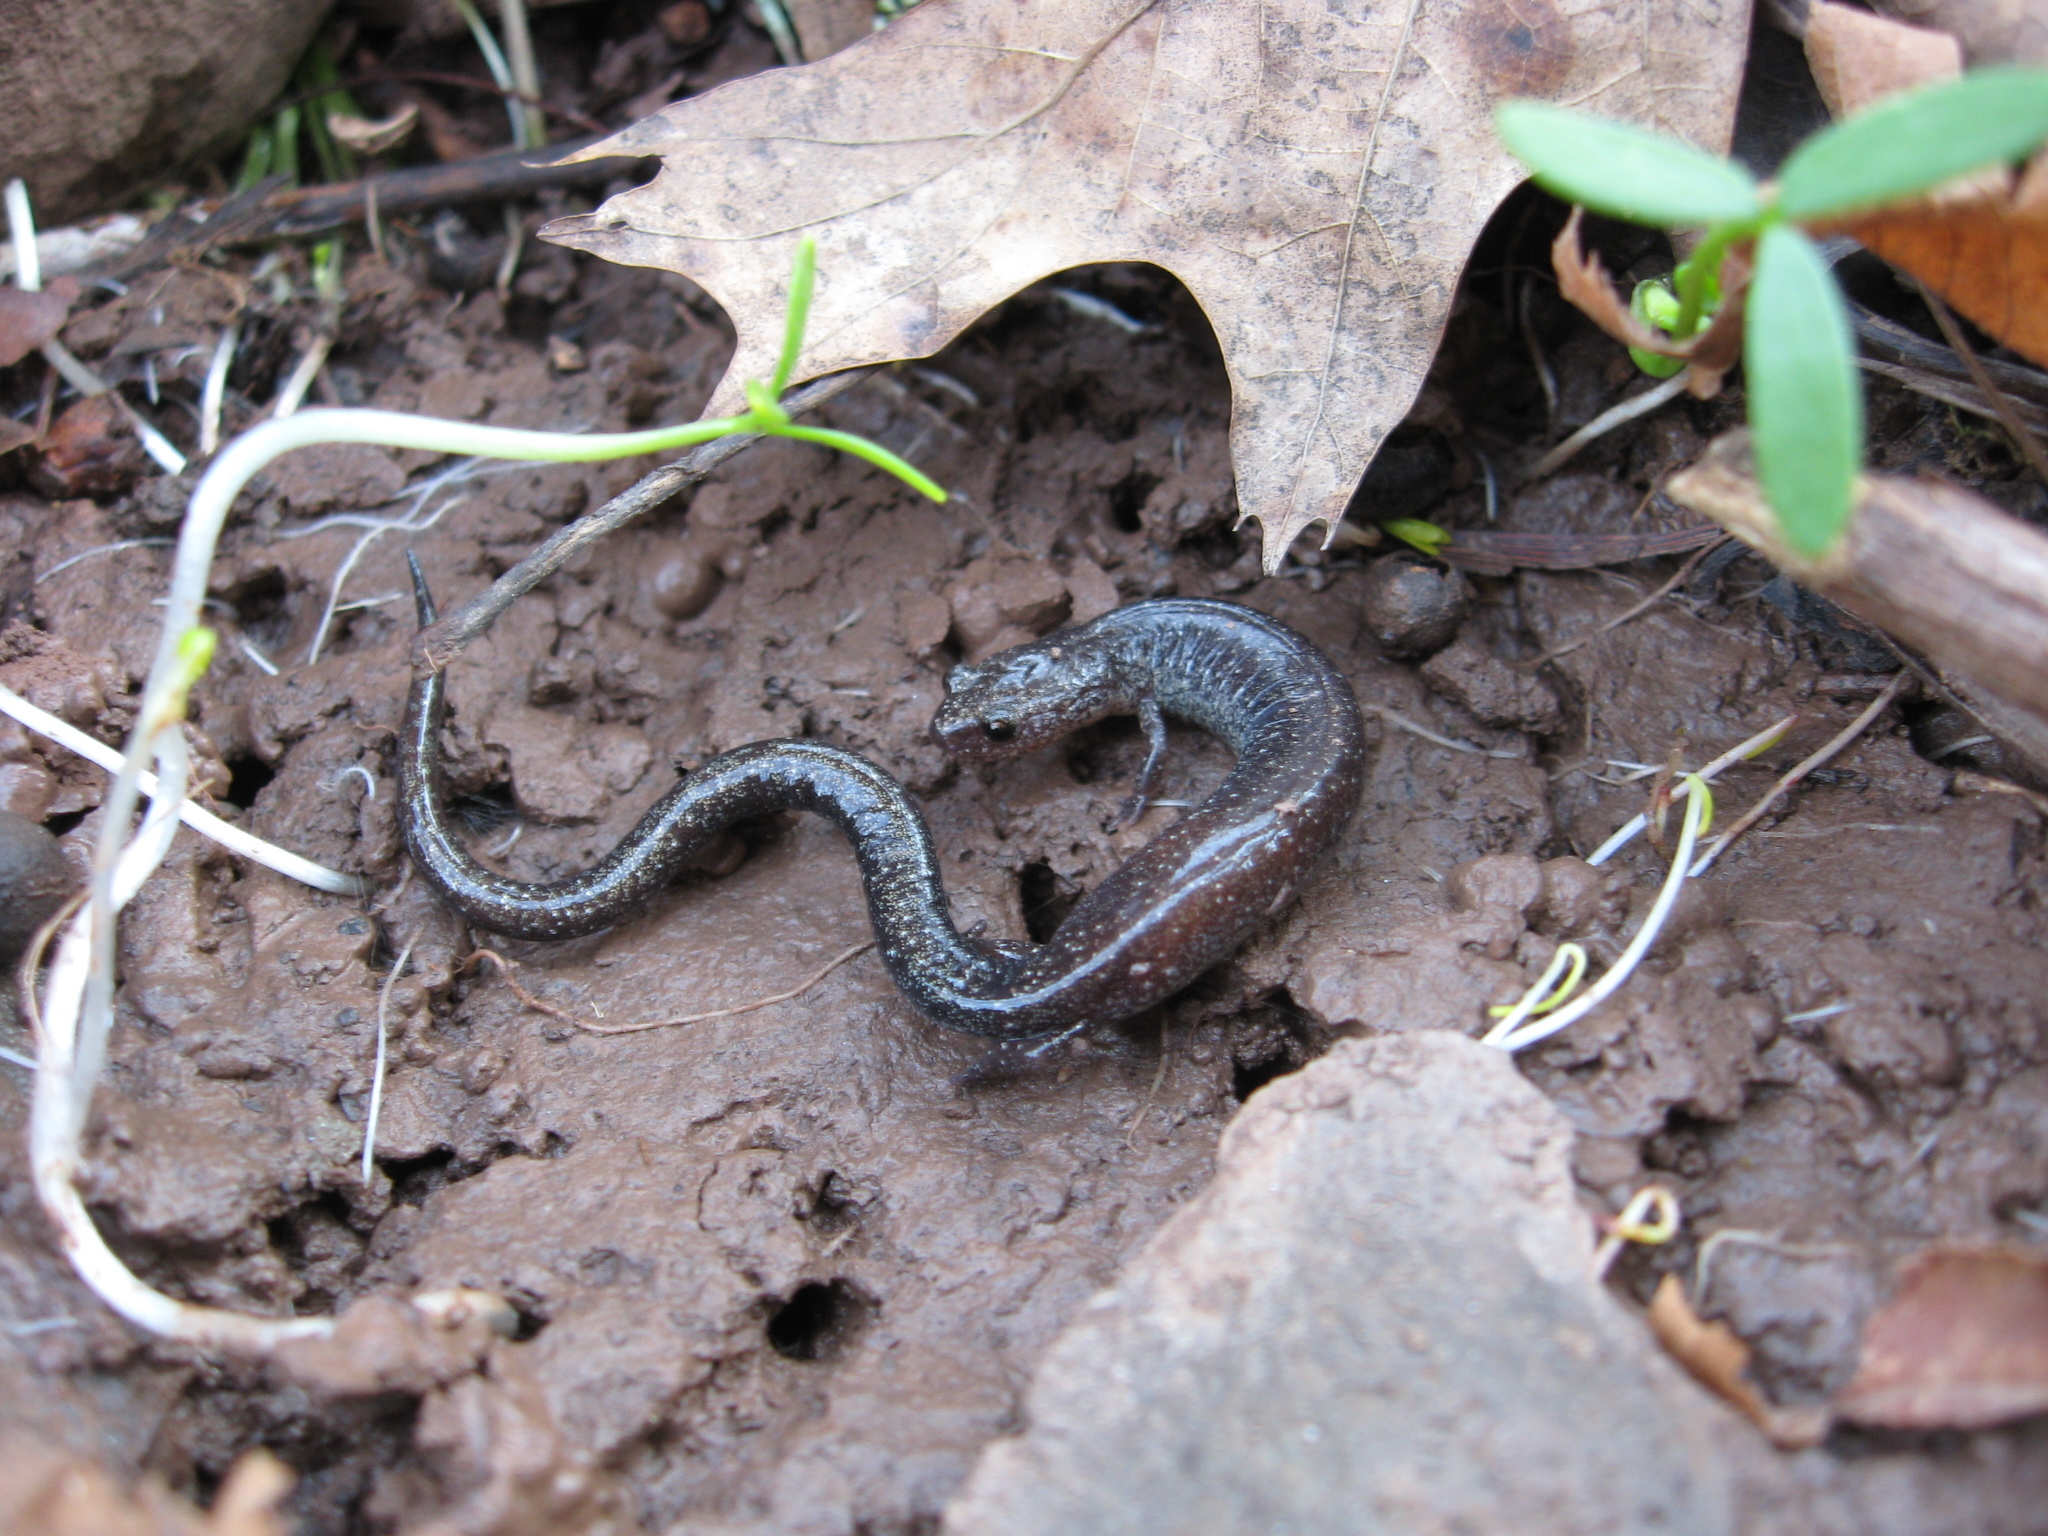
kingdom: Animalia
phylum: Chordata
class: Amphibia
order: Caudata
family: Plethodontidae
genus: Plethodon
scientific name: Plethodon cinereus
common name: Redback salamander
